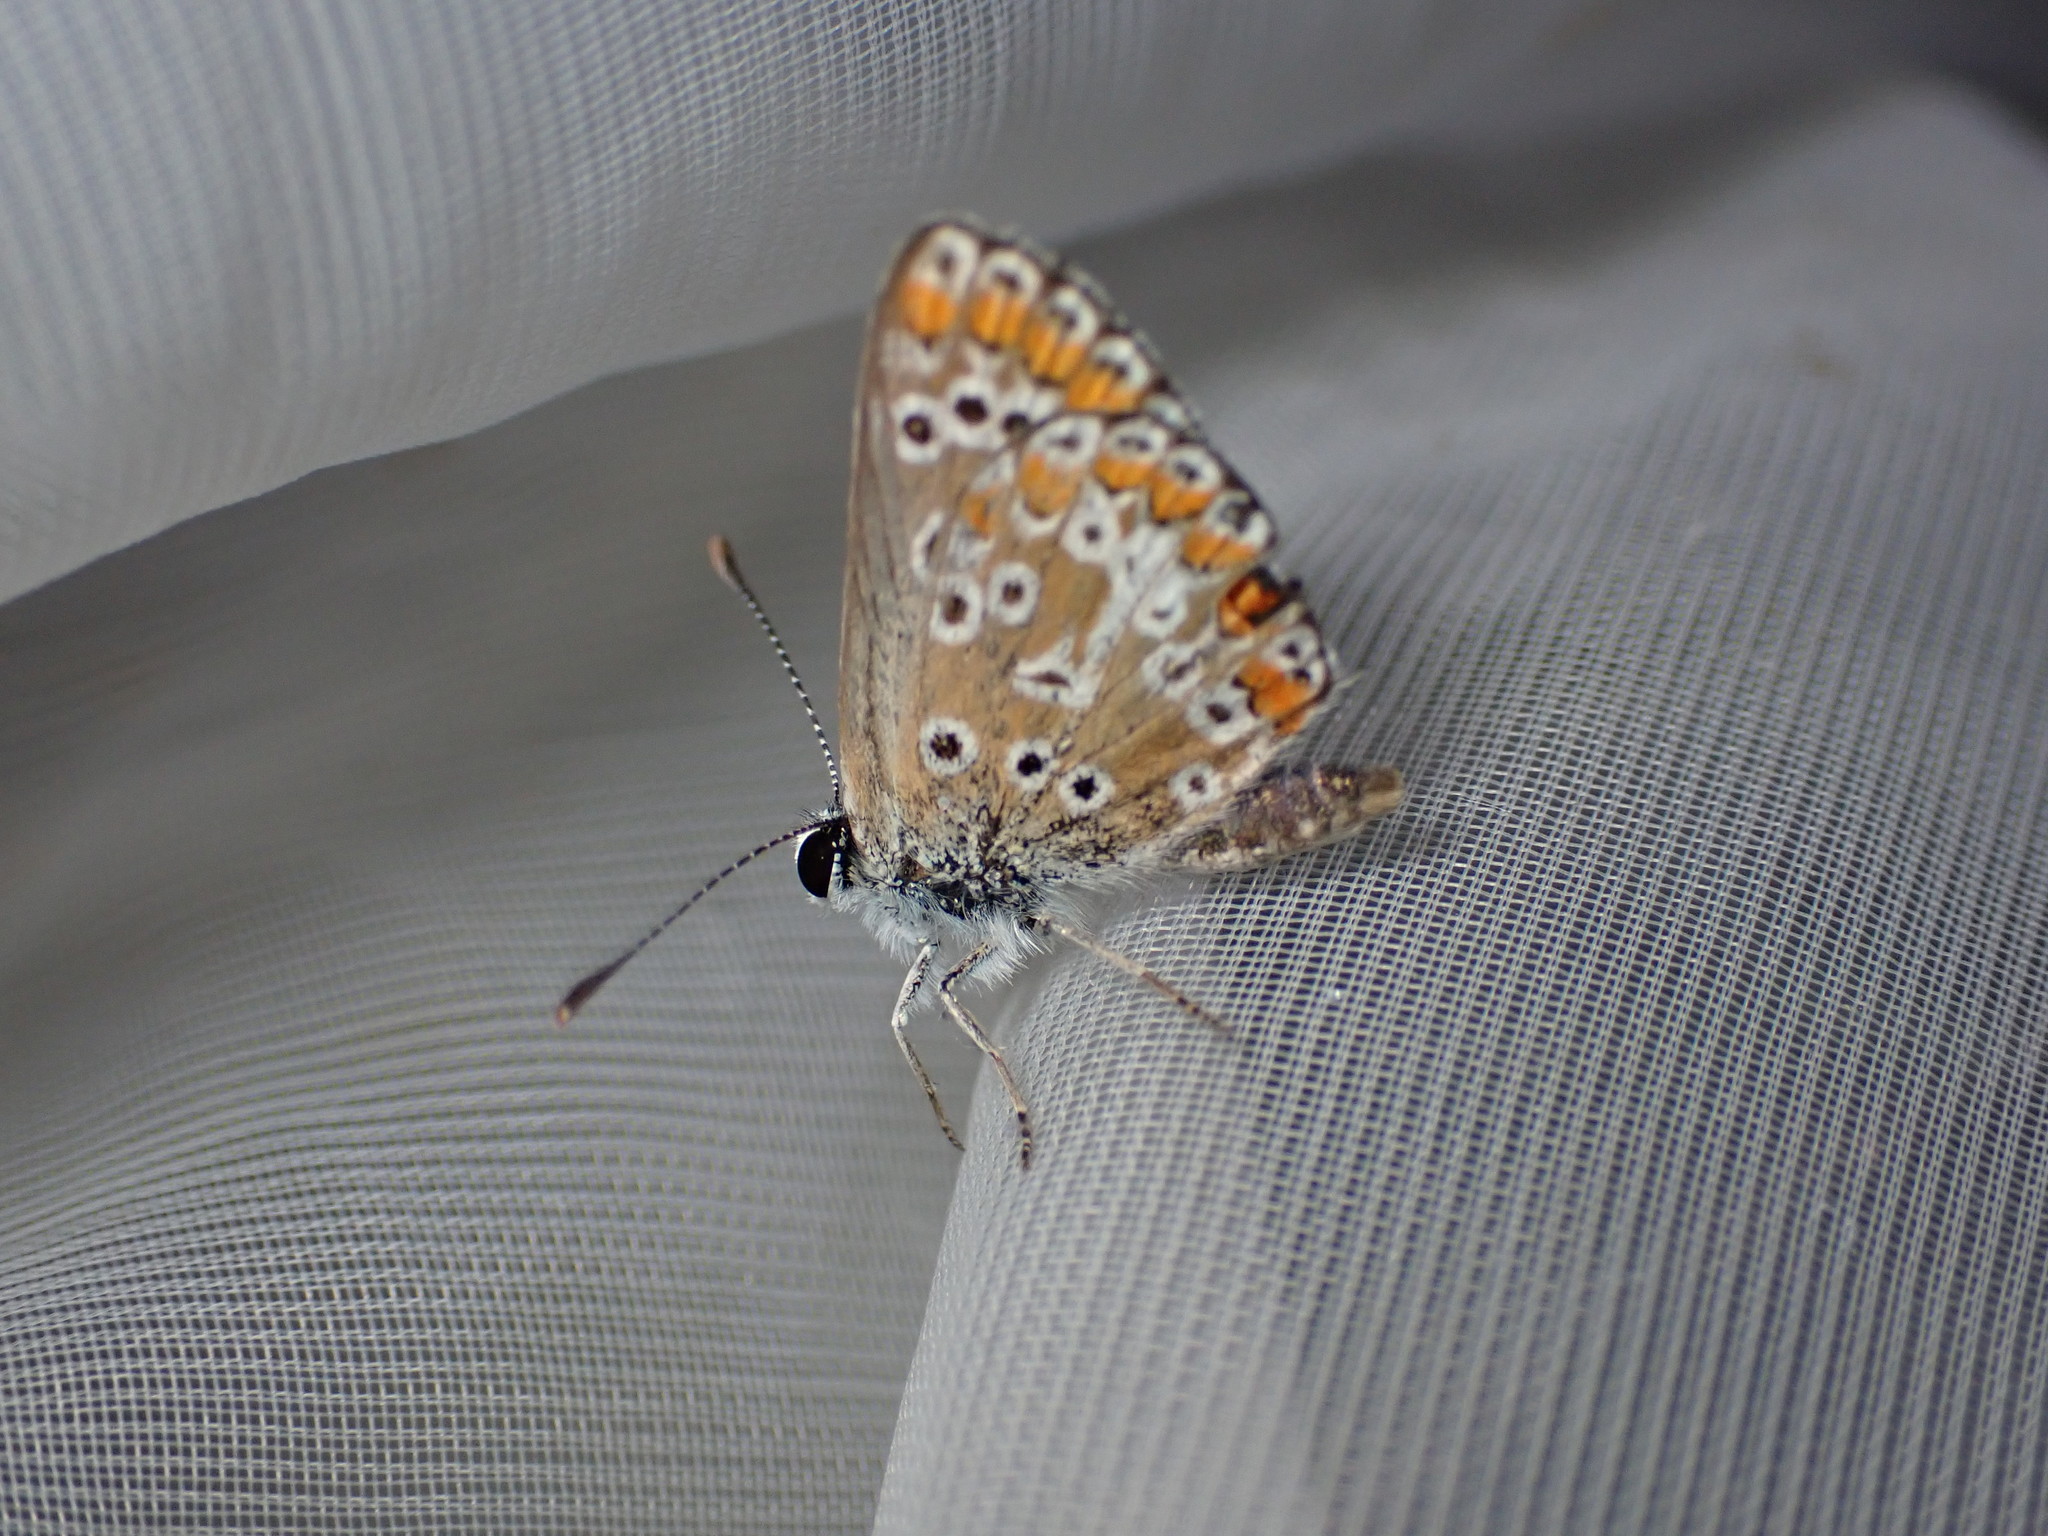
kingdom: Animalia
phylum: Arthropoda
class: Insecta
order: Lepidoptera
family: Lycaenidae
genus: Aricia
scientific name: Aricia agestis
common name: Brown argus
